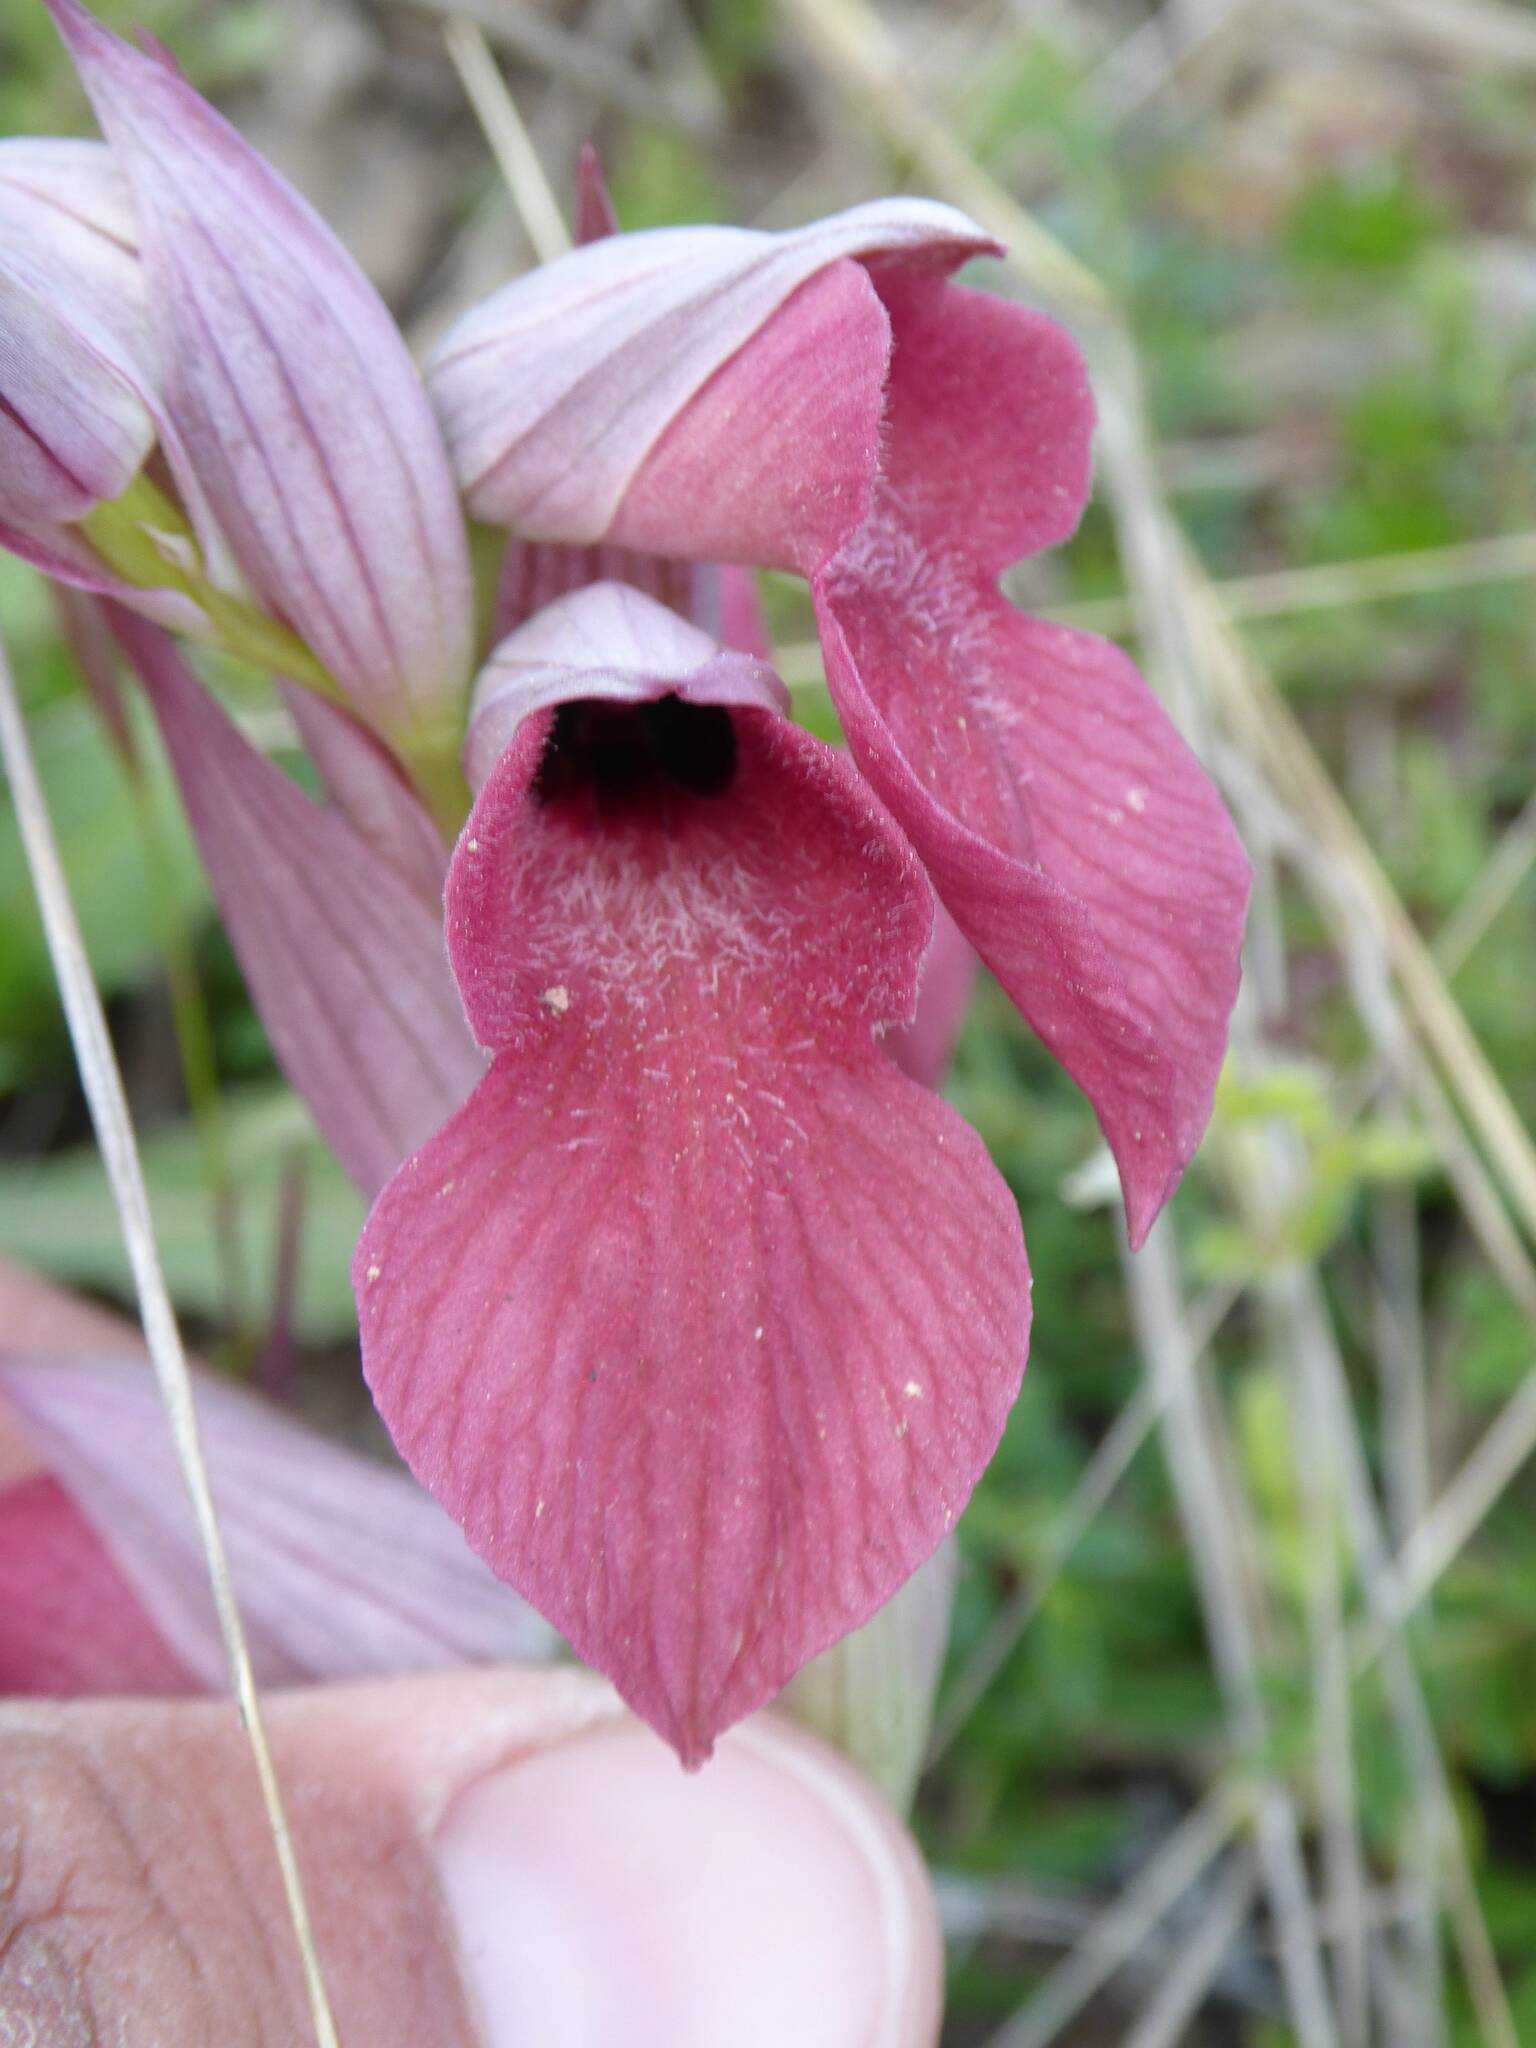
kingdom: Plantae
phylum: Tracheophyta
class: Liliopsida
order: Asparagales
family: Orchidaceae
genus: Serapias
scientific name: Serapias neglecta
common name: Neglected serapias
